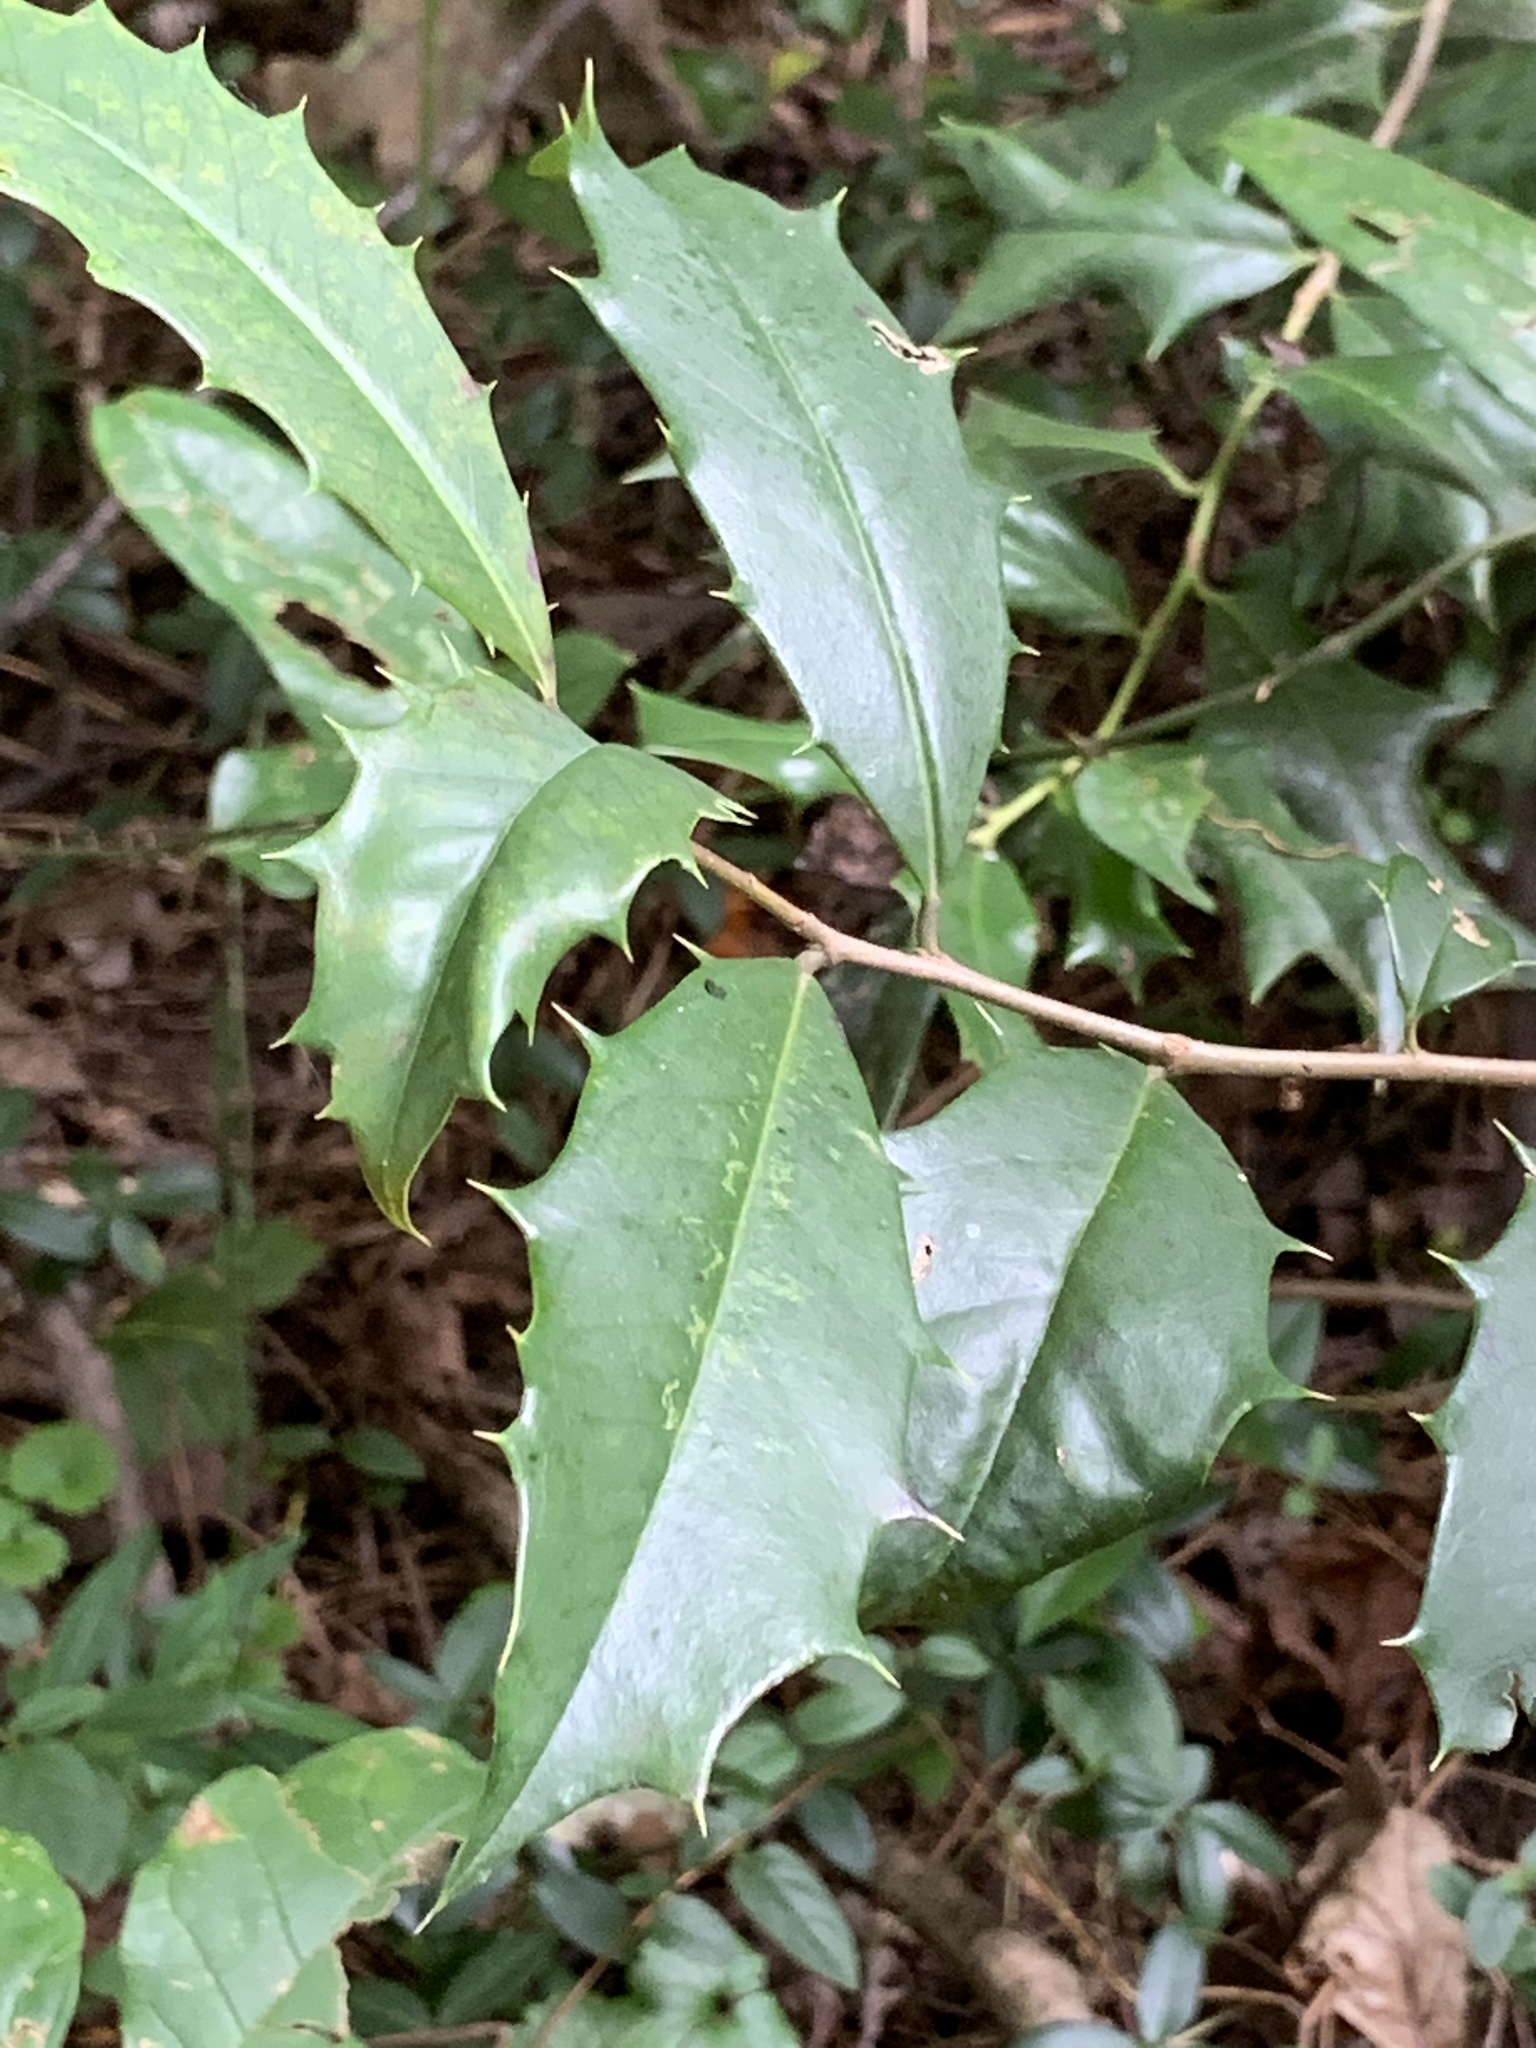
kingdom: Plantae
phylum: Tracheophyta
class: Magnoliopsida
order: Aquifoliales
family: Aquifoliaceae
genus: Ilex
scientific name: Ilex opaca
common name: American holly
